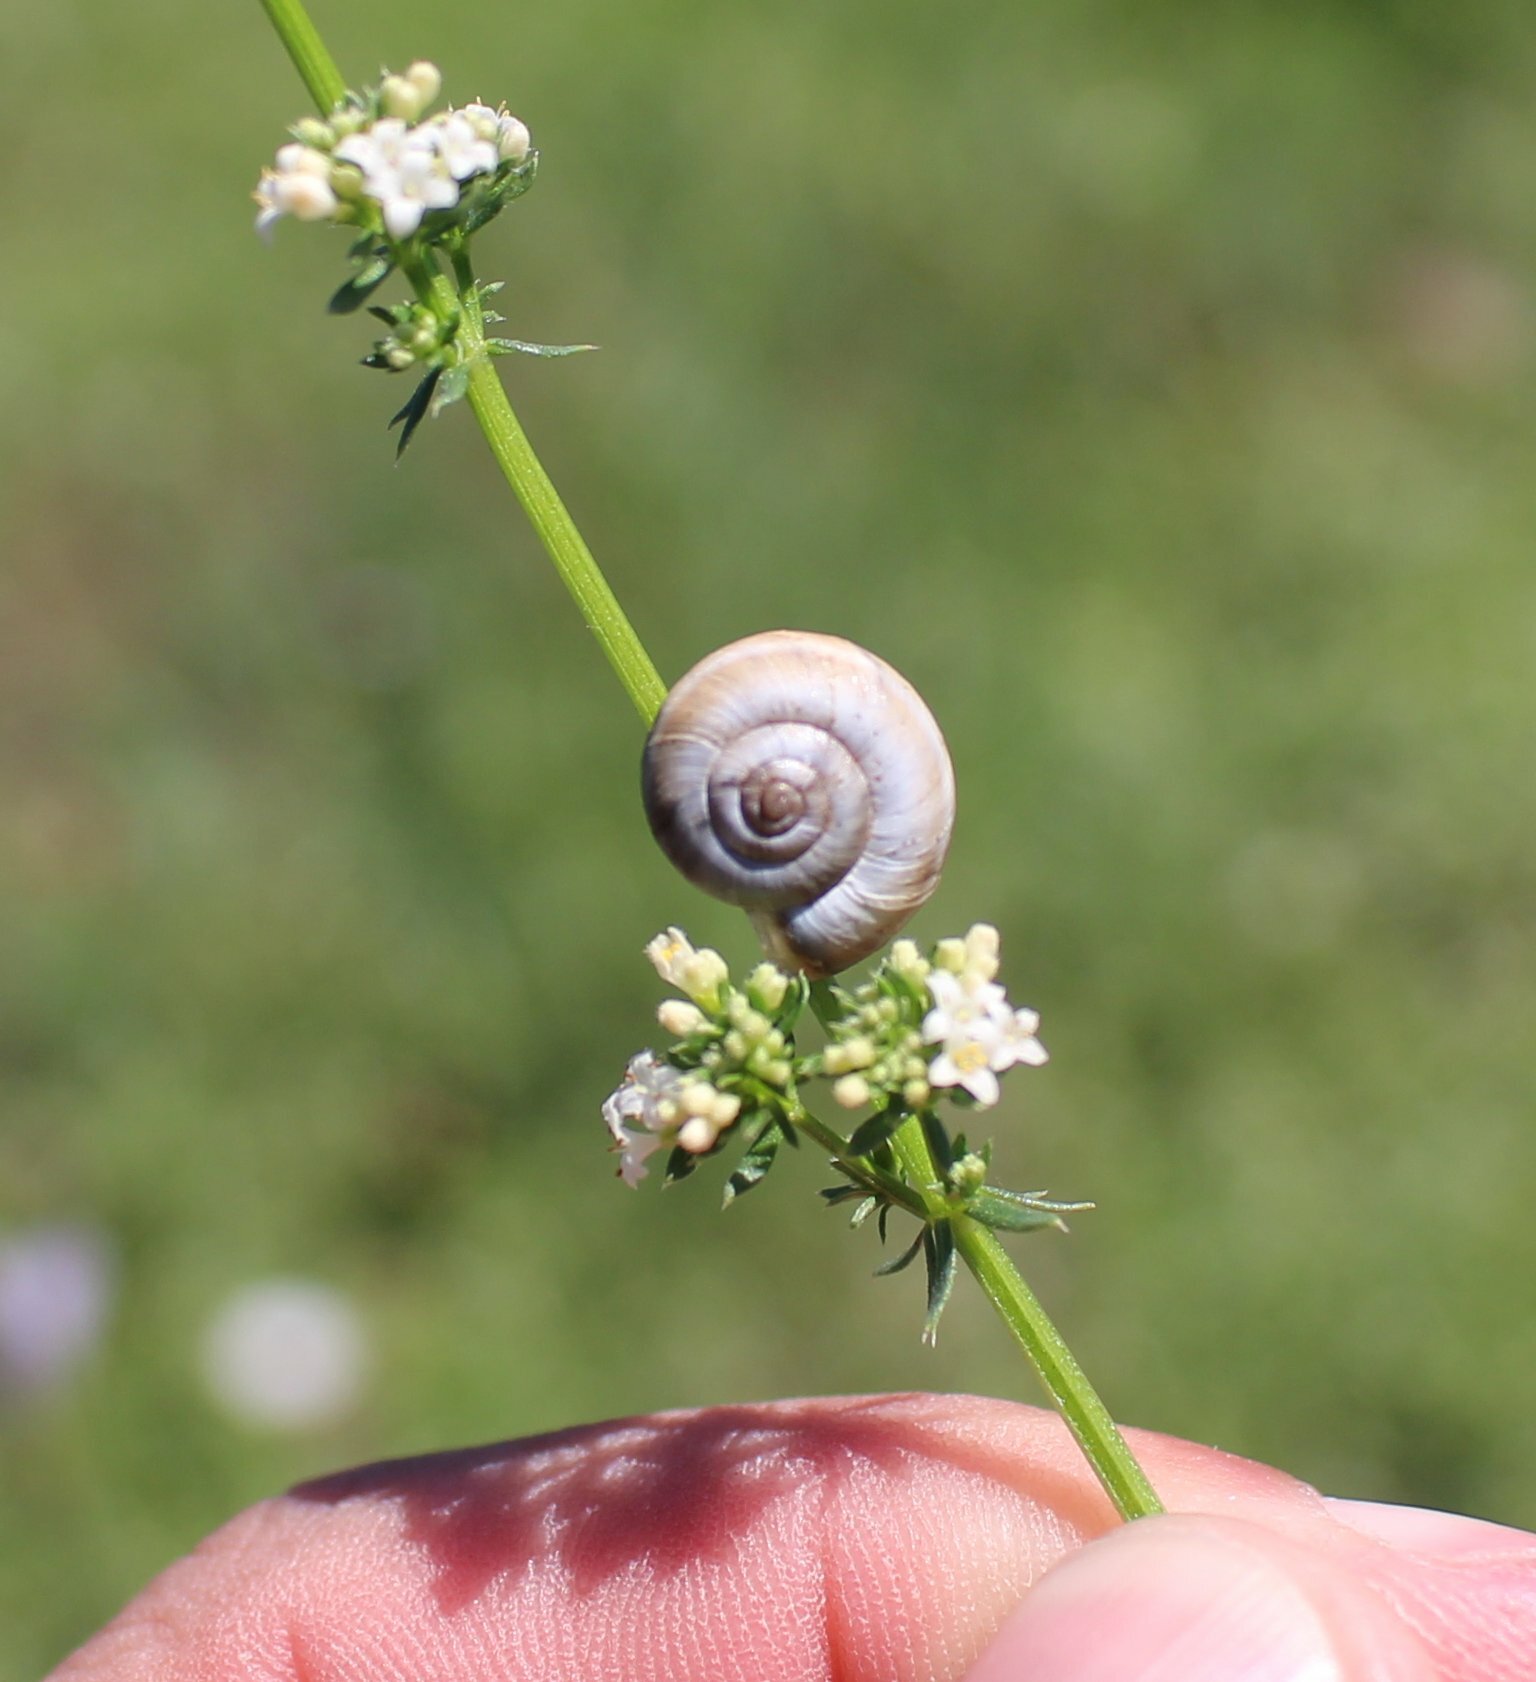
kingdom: Plantae
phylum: Tracheophyta
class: Magnoliopsida
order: Gentianales
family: Rubiaceae
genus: Galium
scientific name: Galium humifusum
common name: Spreading bedstraw
